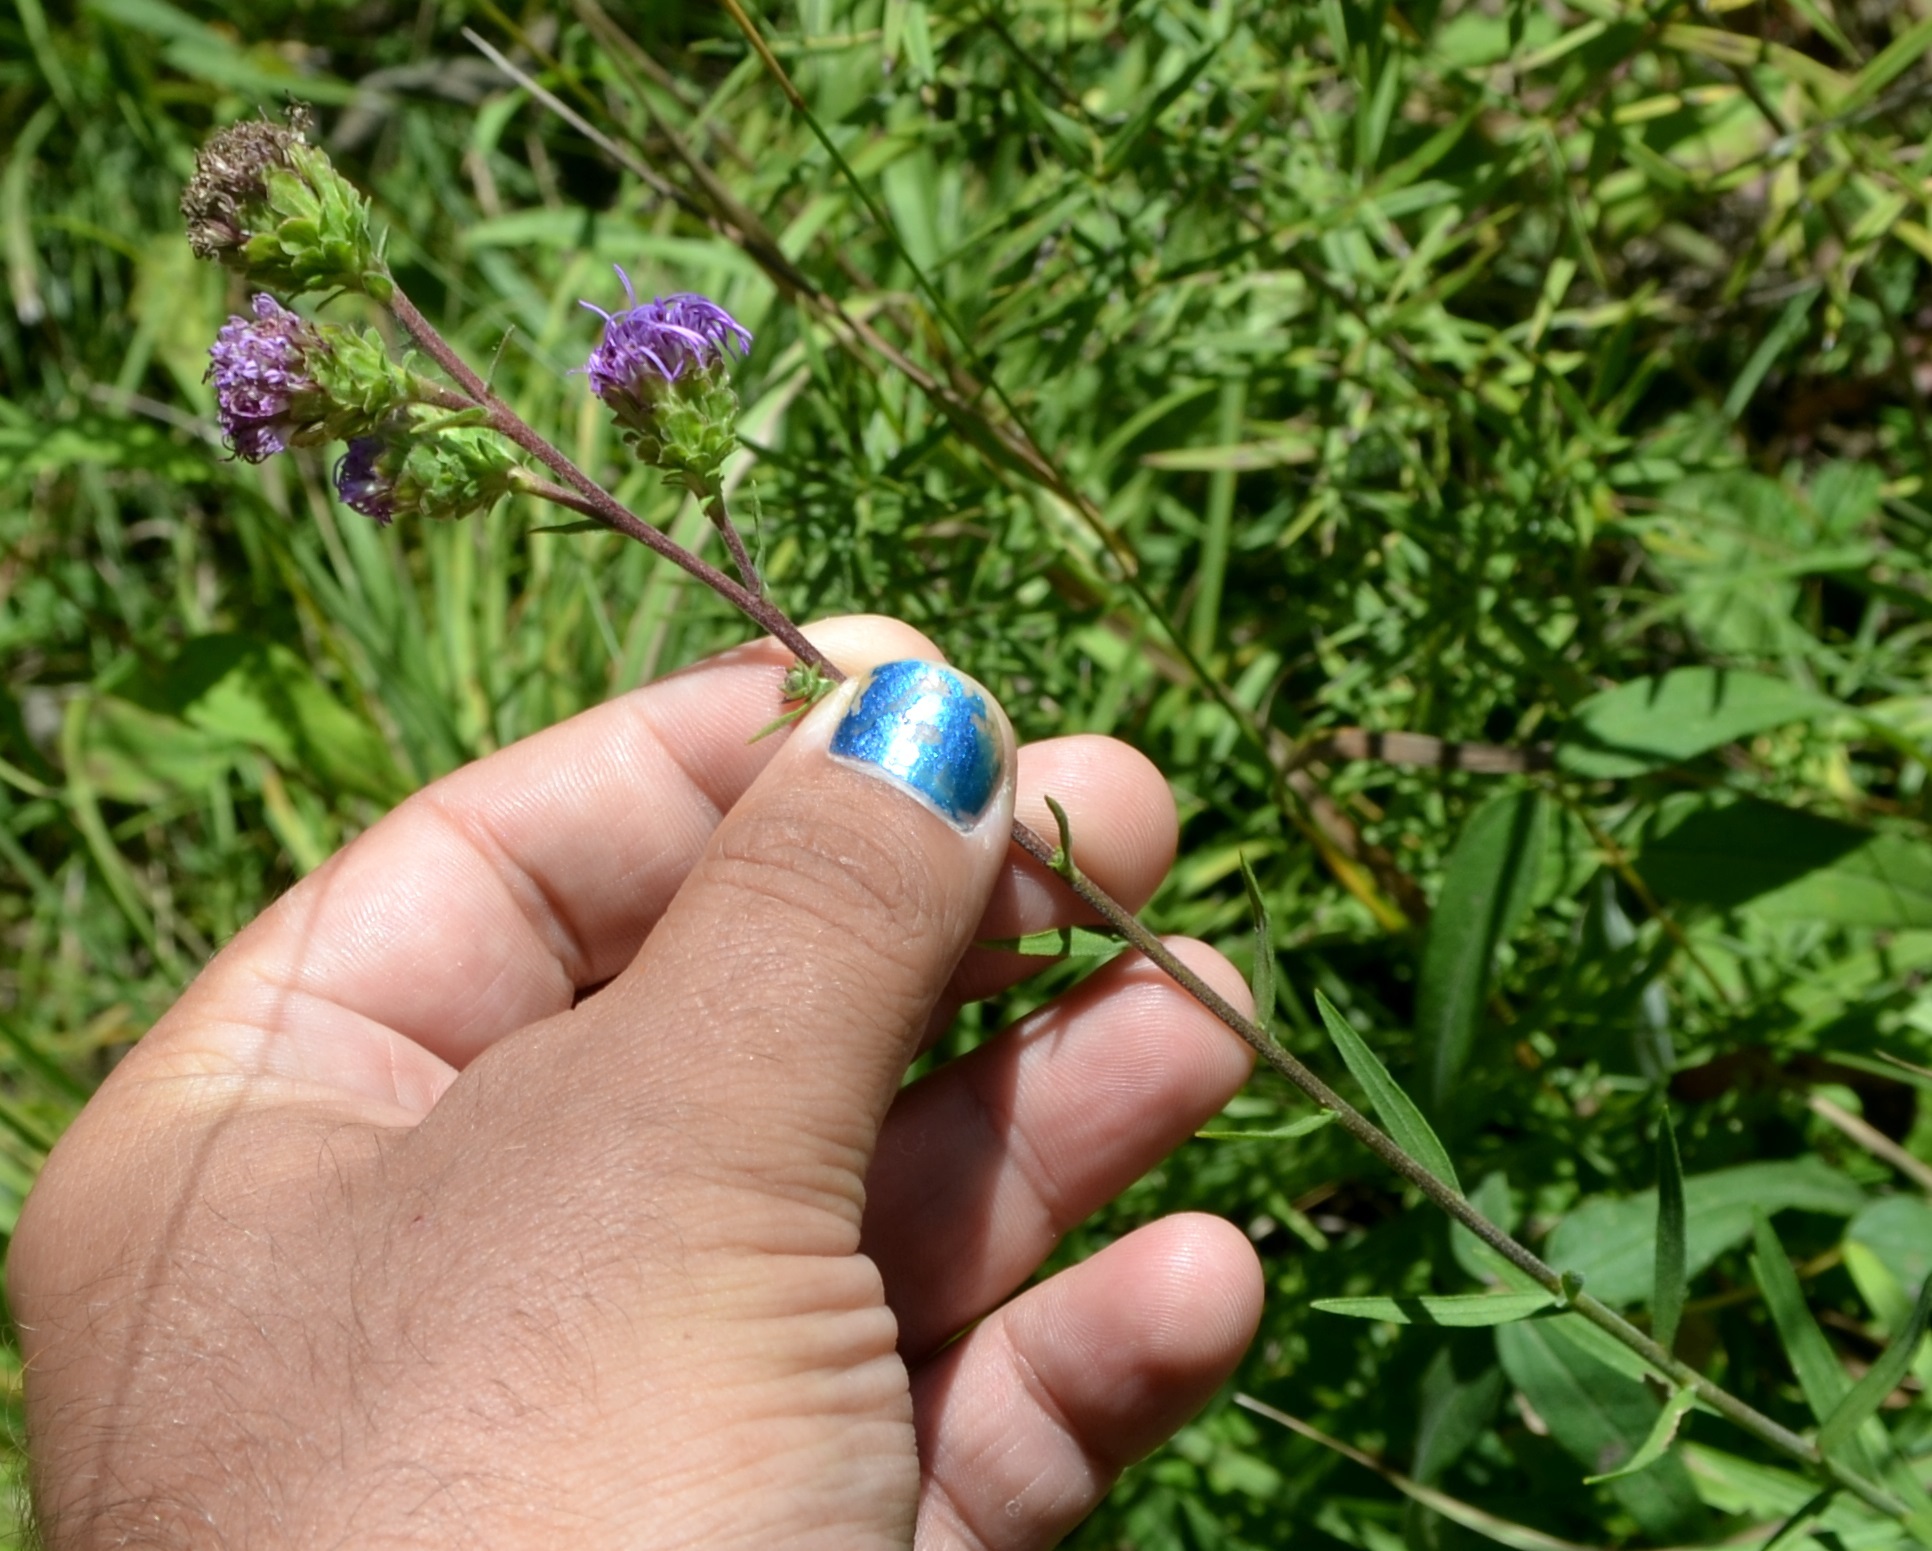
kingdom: Plantae
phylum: Tracheophyta
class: Magnoliopsida
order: Asterales
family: Asteraceae
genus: Liatris
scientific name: Liatris scariosa
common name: Northern gayfeather
